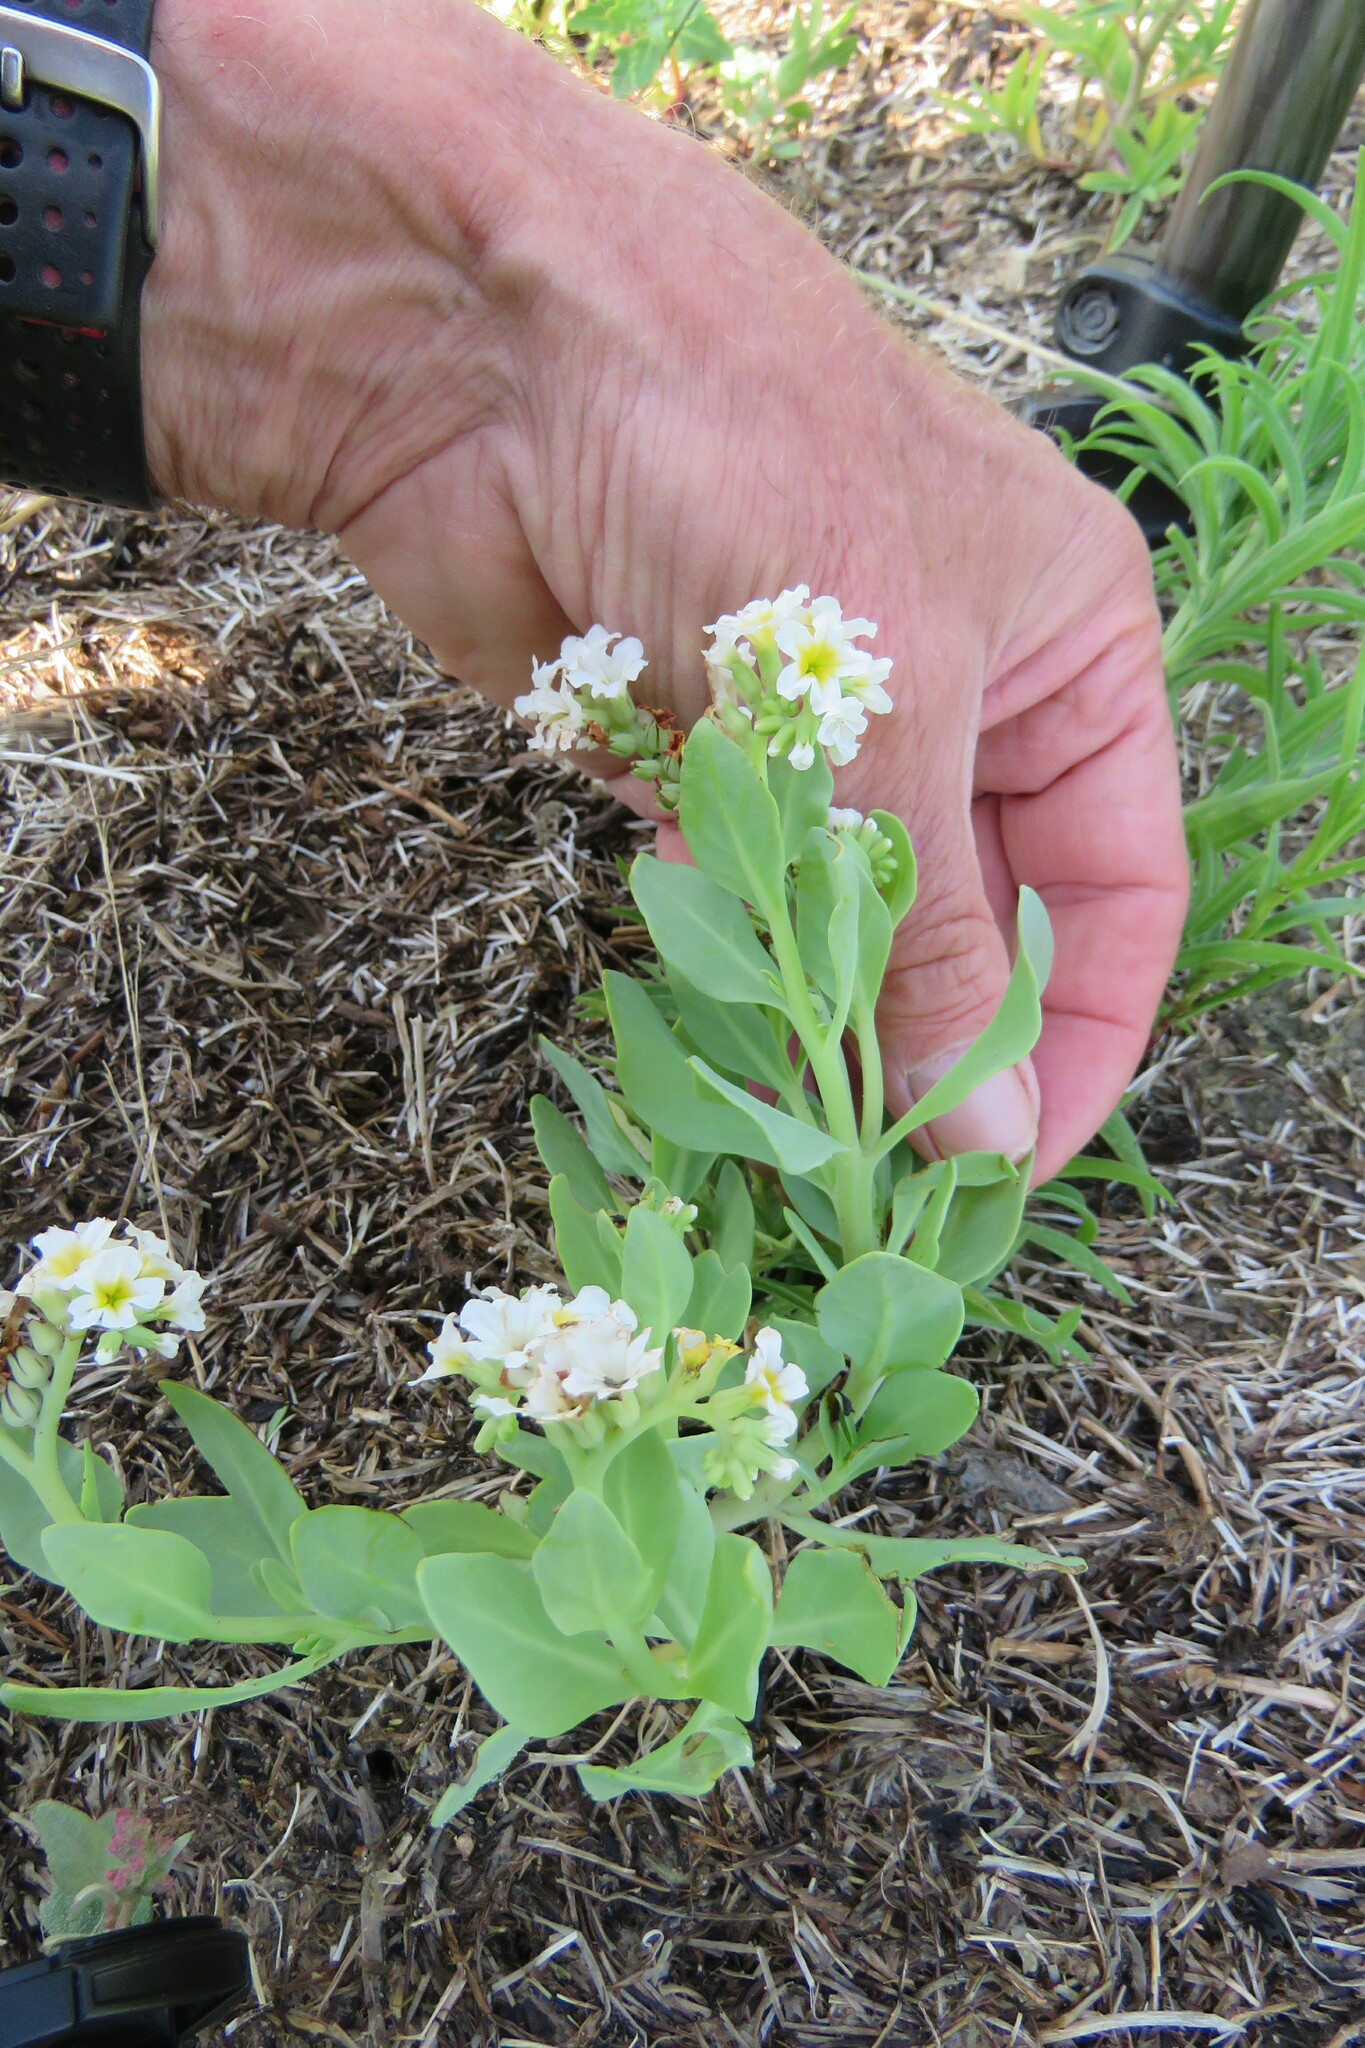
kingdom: Plantae
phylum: Tracheophyta
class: Magnoliopsida
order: Boraginales
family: Heliotropiaceae
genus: Heliotropium
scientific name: Heliotropium curassavicum
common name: Seaside heliotrope
